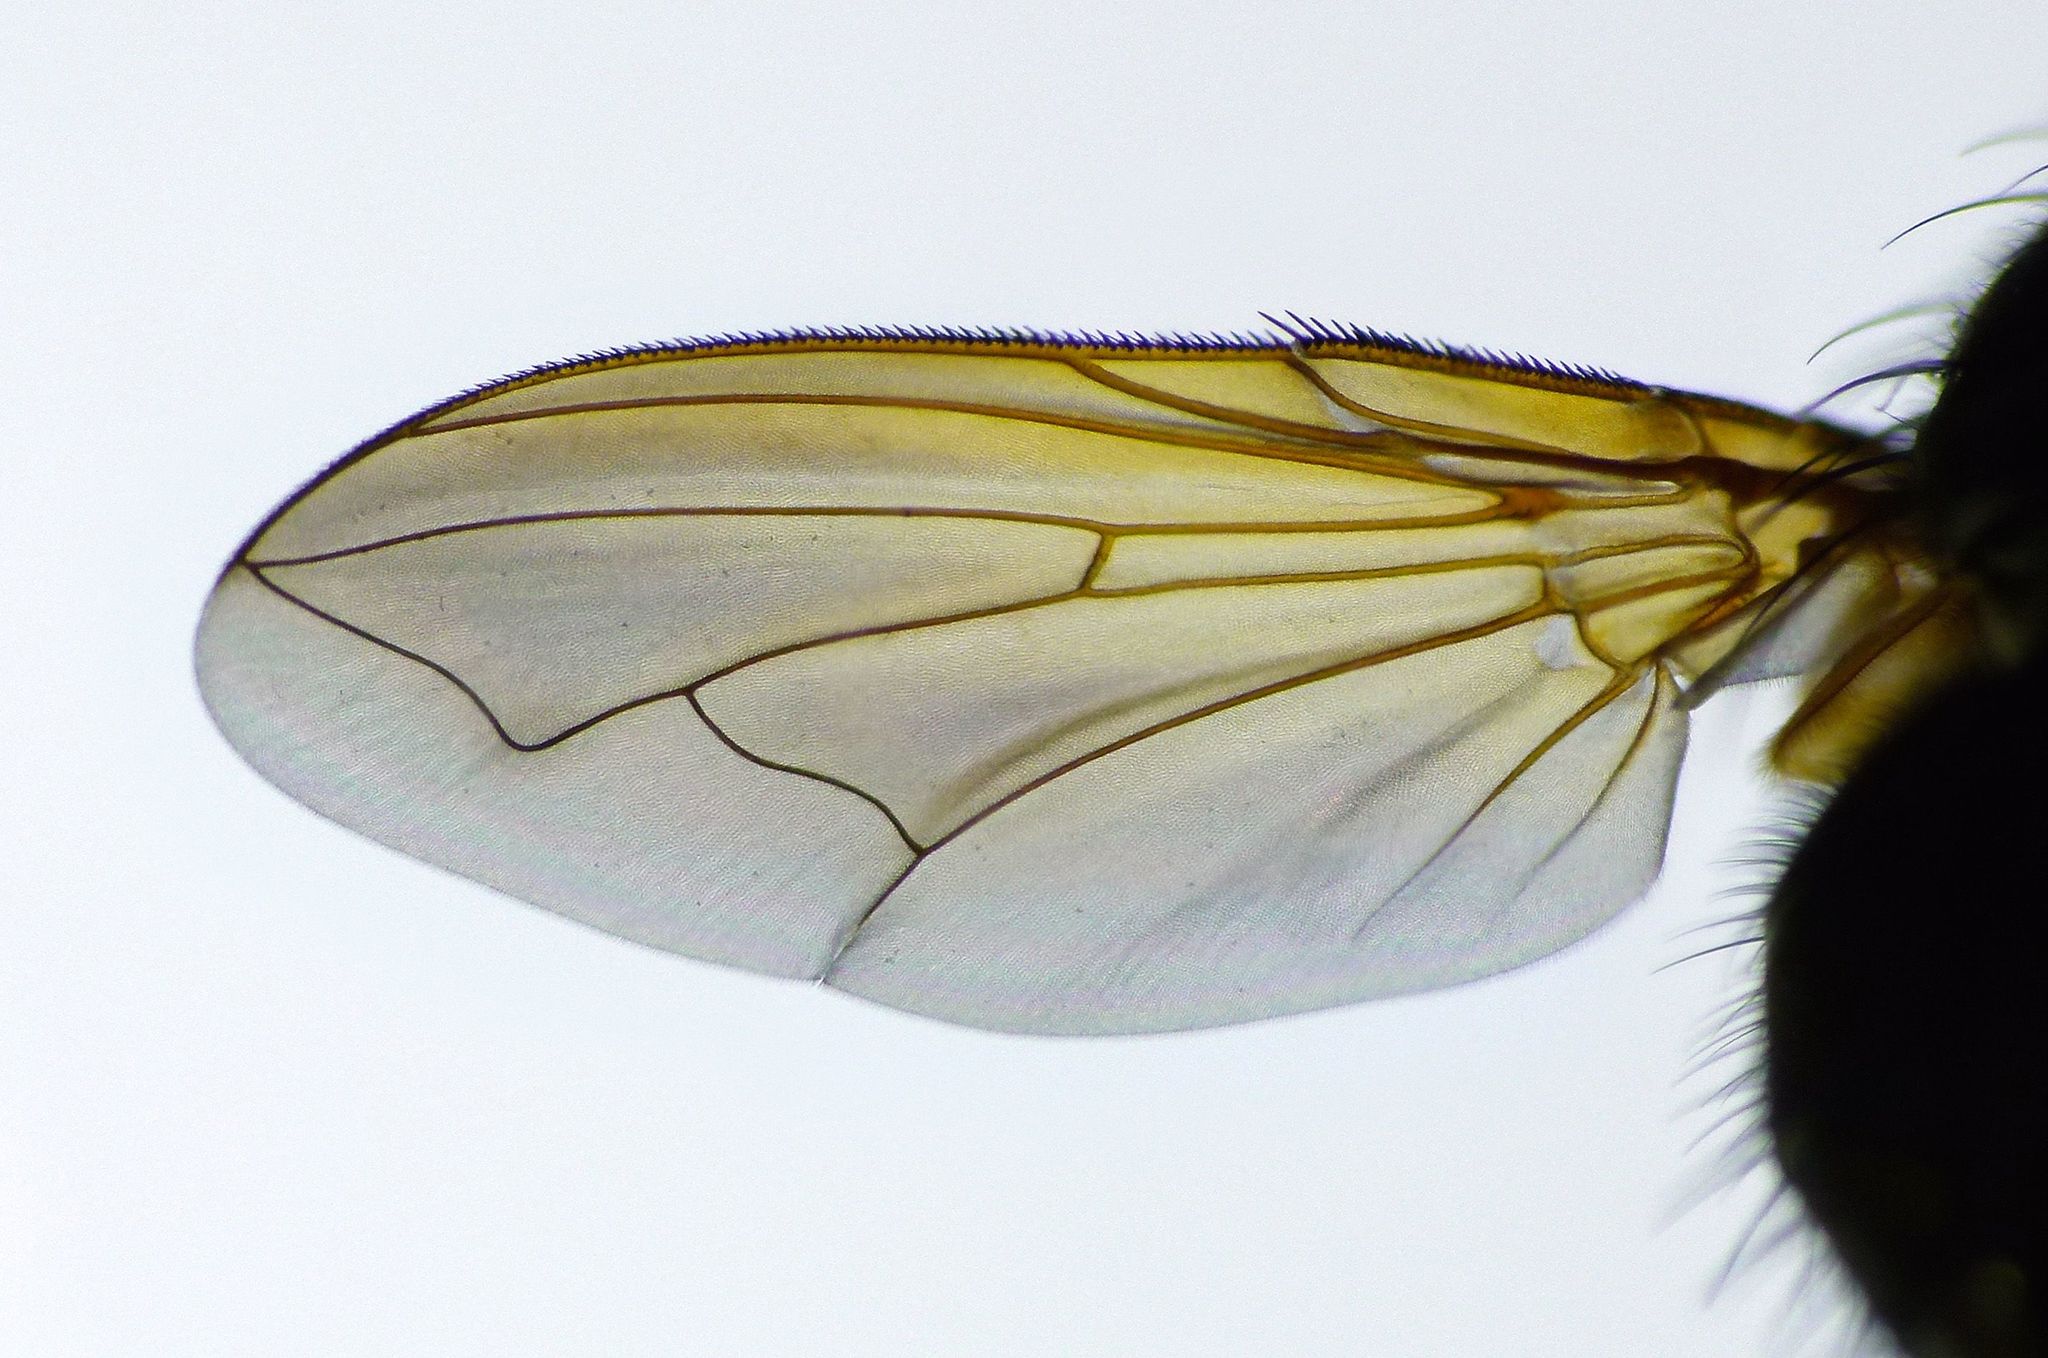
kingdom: Animalia
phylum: Arthropoda
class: Insecta
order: Diptera
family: Polleniidae
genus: Pollenia
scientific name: Pollenia uniseta
